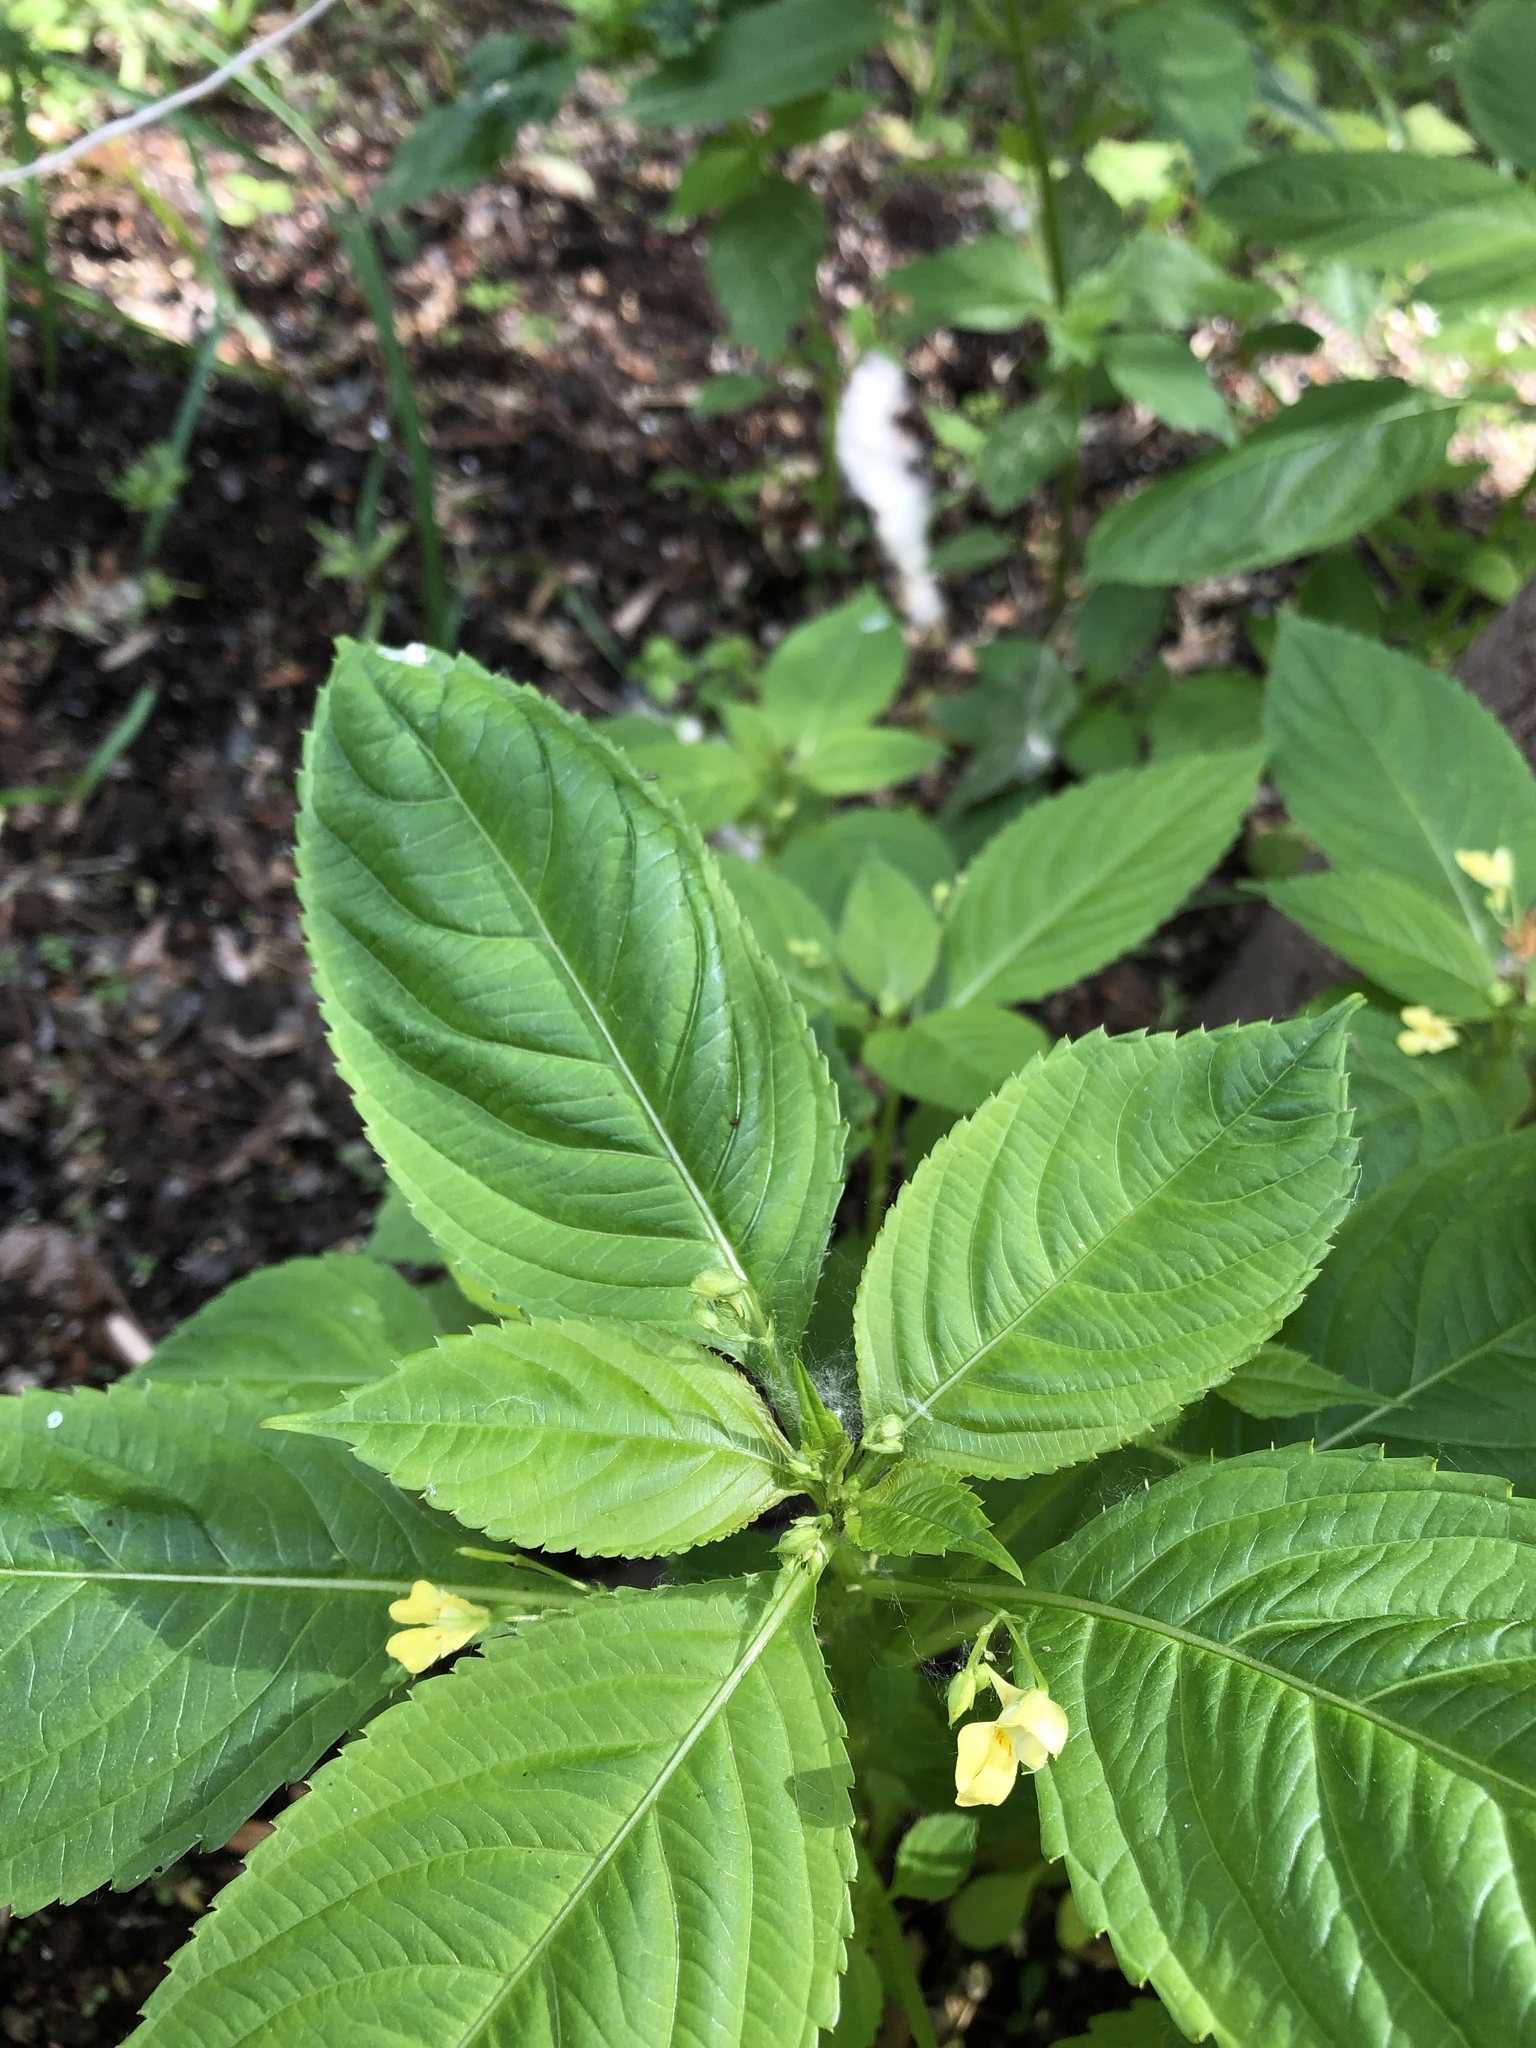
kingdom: Plantae
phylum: Tracheophyta
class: Magnoliopsida
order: Ericales
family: Balsaminaceae
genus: Impatiens
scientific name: Impatiens parviflora
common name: Small balsam
